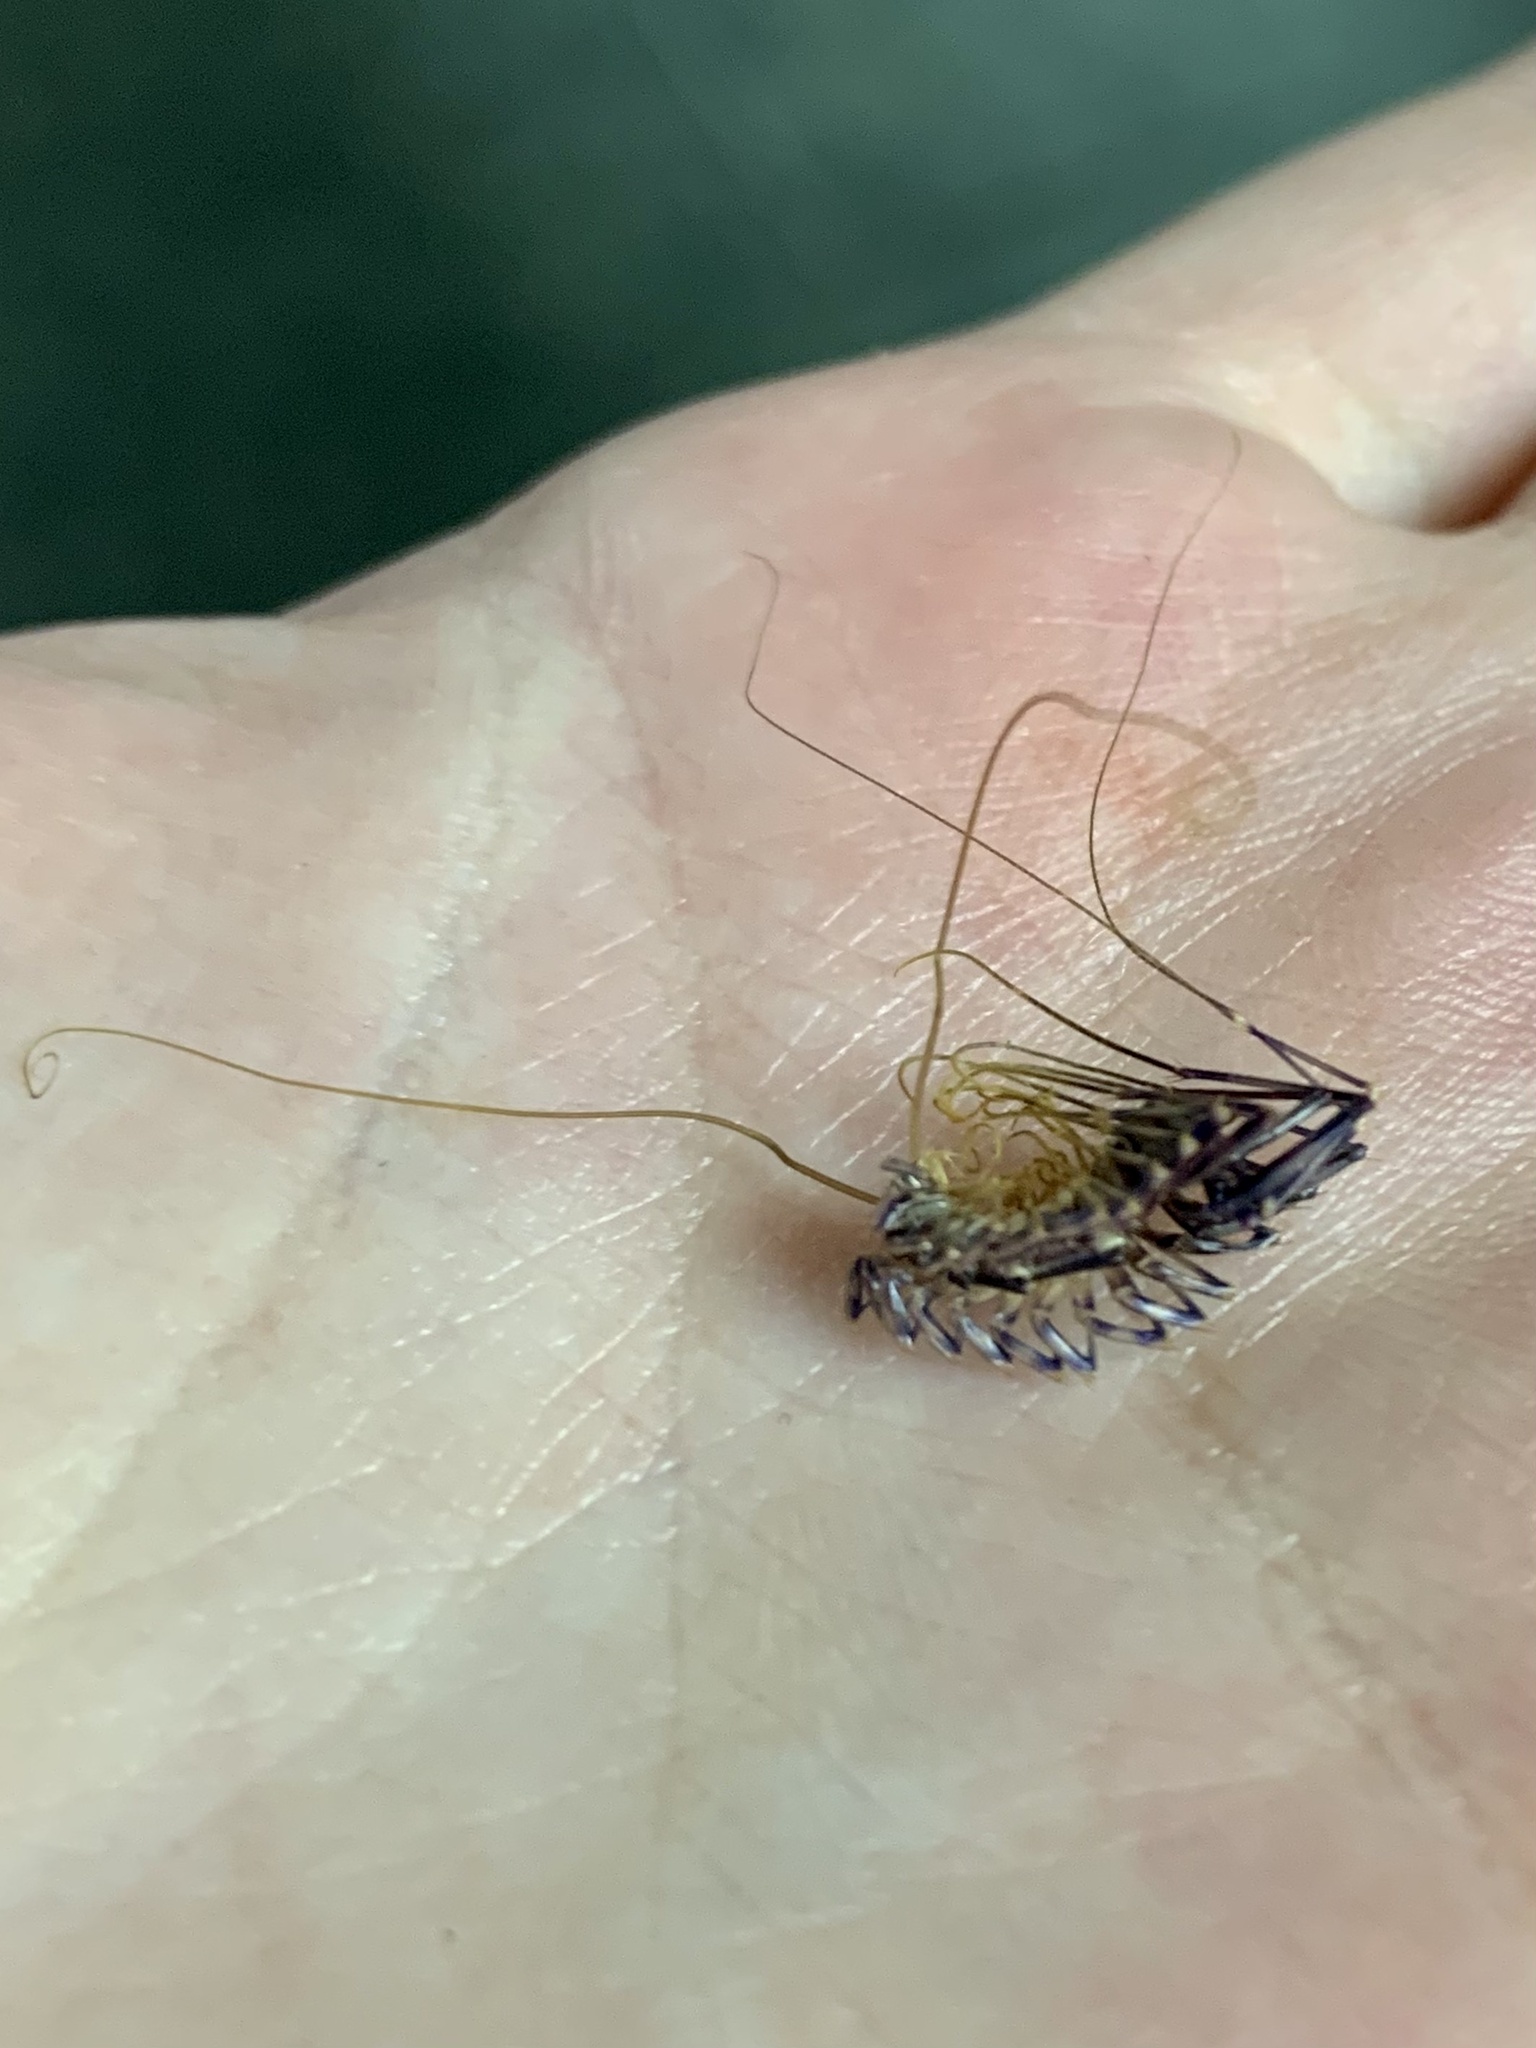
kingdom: Animalia
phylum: Arthropoda
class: Chilopoda
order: Scutigeromorpha
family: Scutigeridae
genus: Scutigera
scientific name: Scutigera coleoptrata
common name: House centipede
